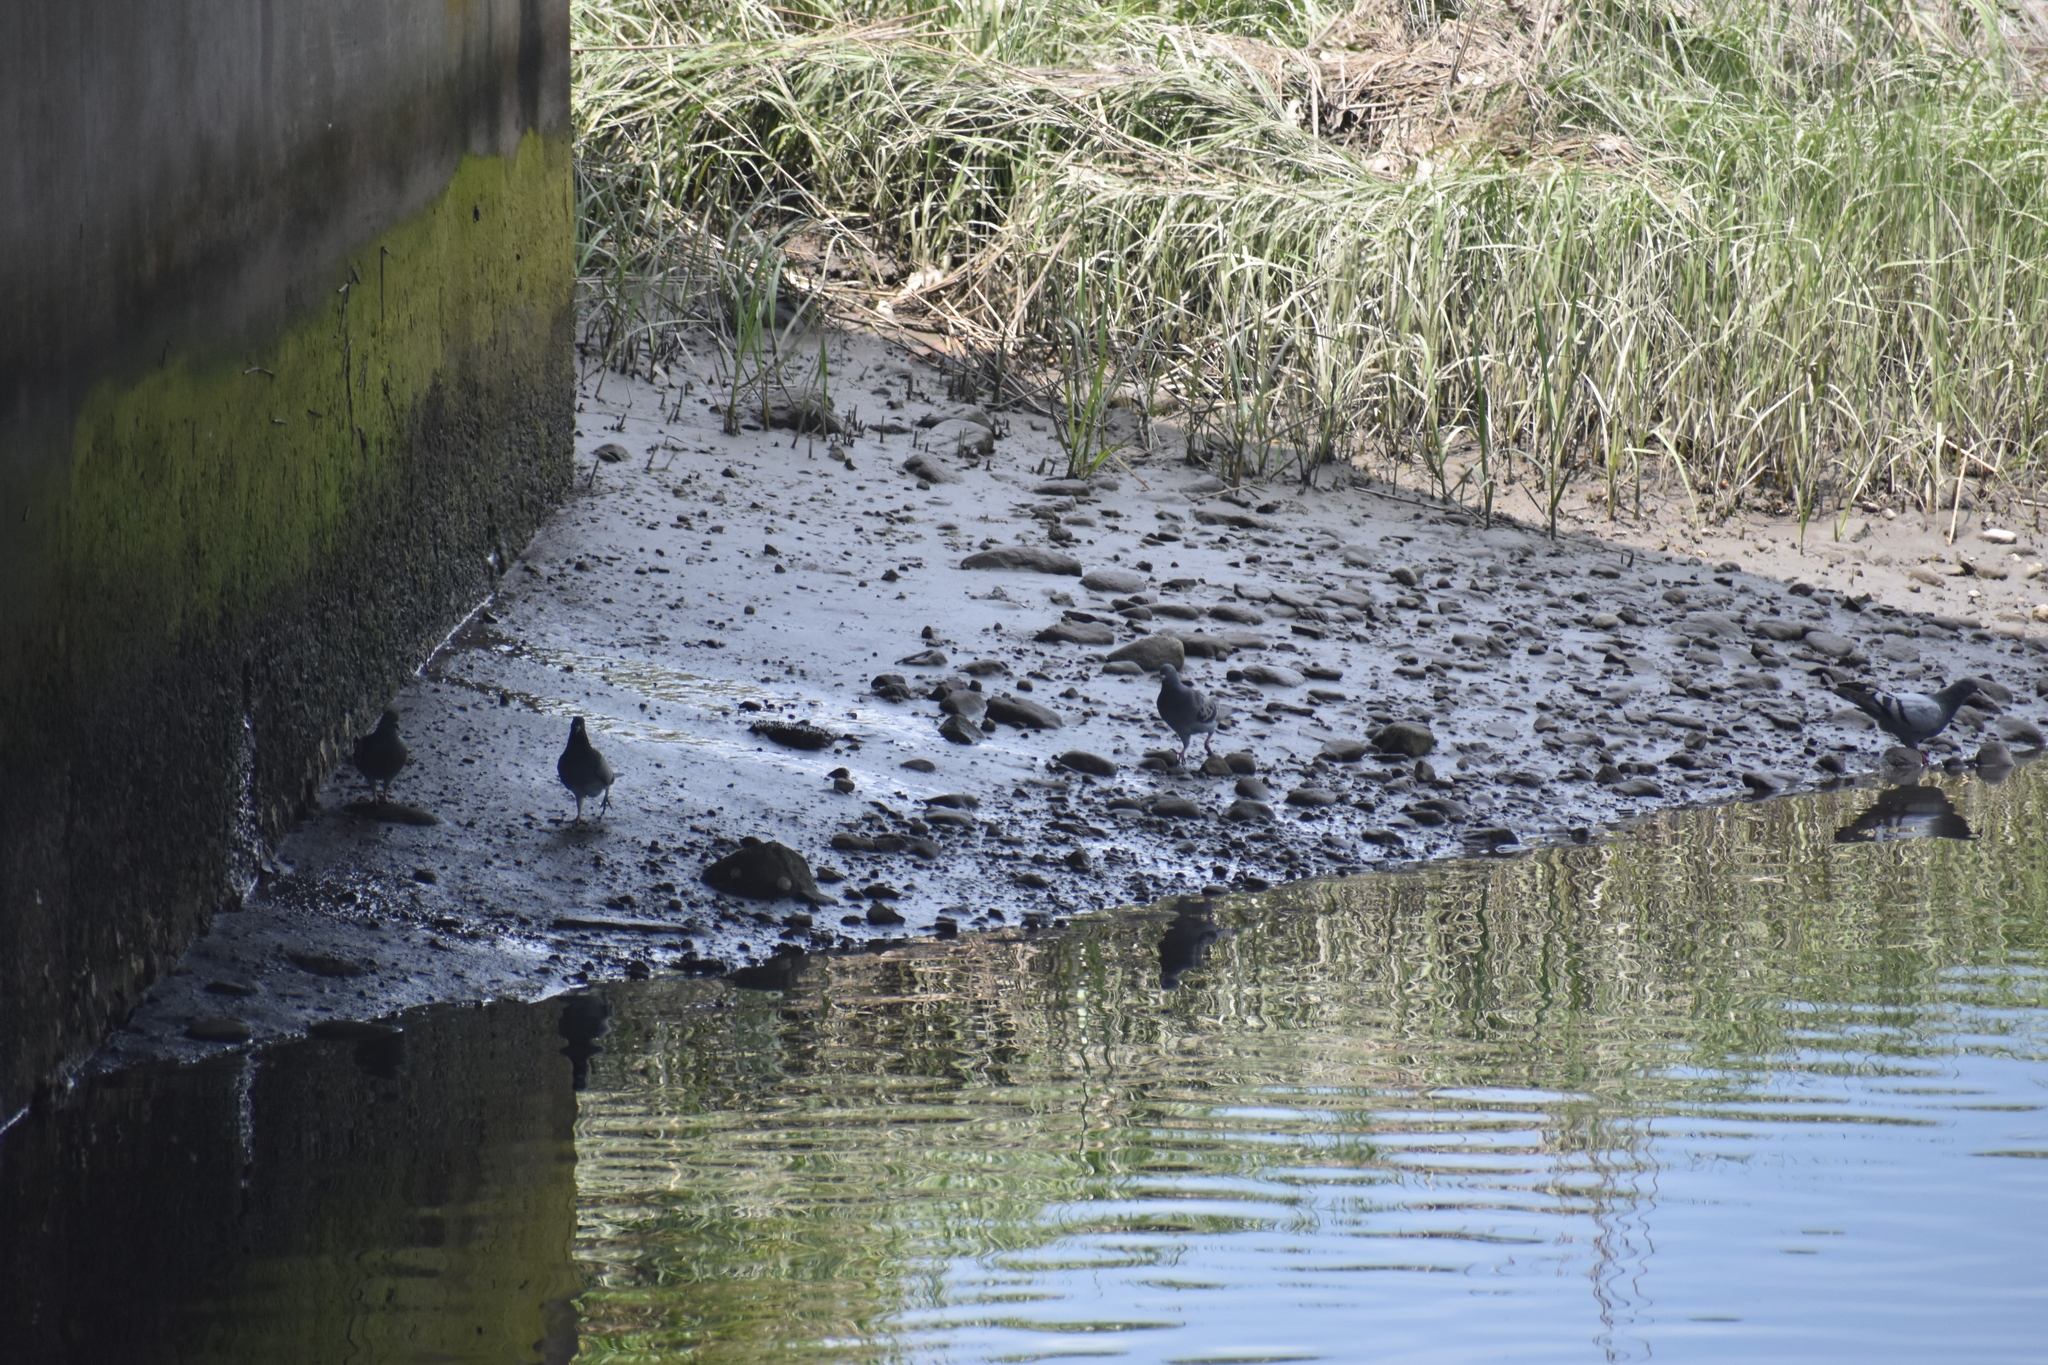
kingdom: Animalia
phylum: Chordata
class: Aves
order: Columbiformes
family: Columbidae
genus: Columba
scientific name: Columba livia
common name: Rock pigeon
